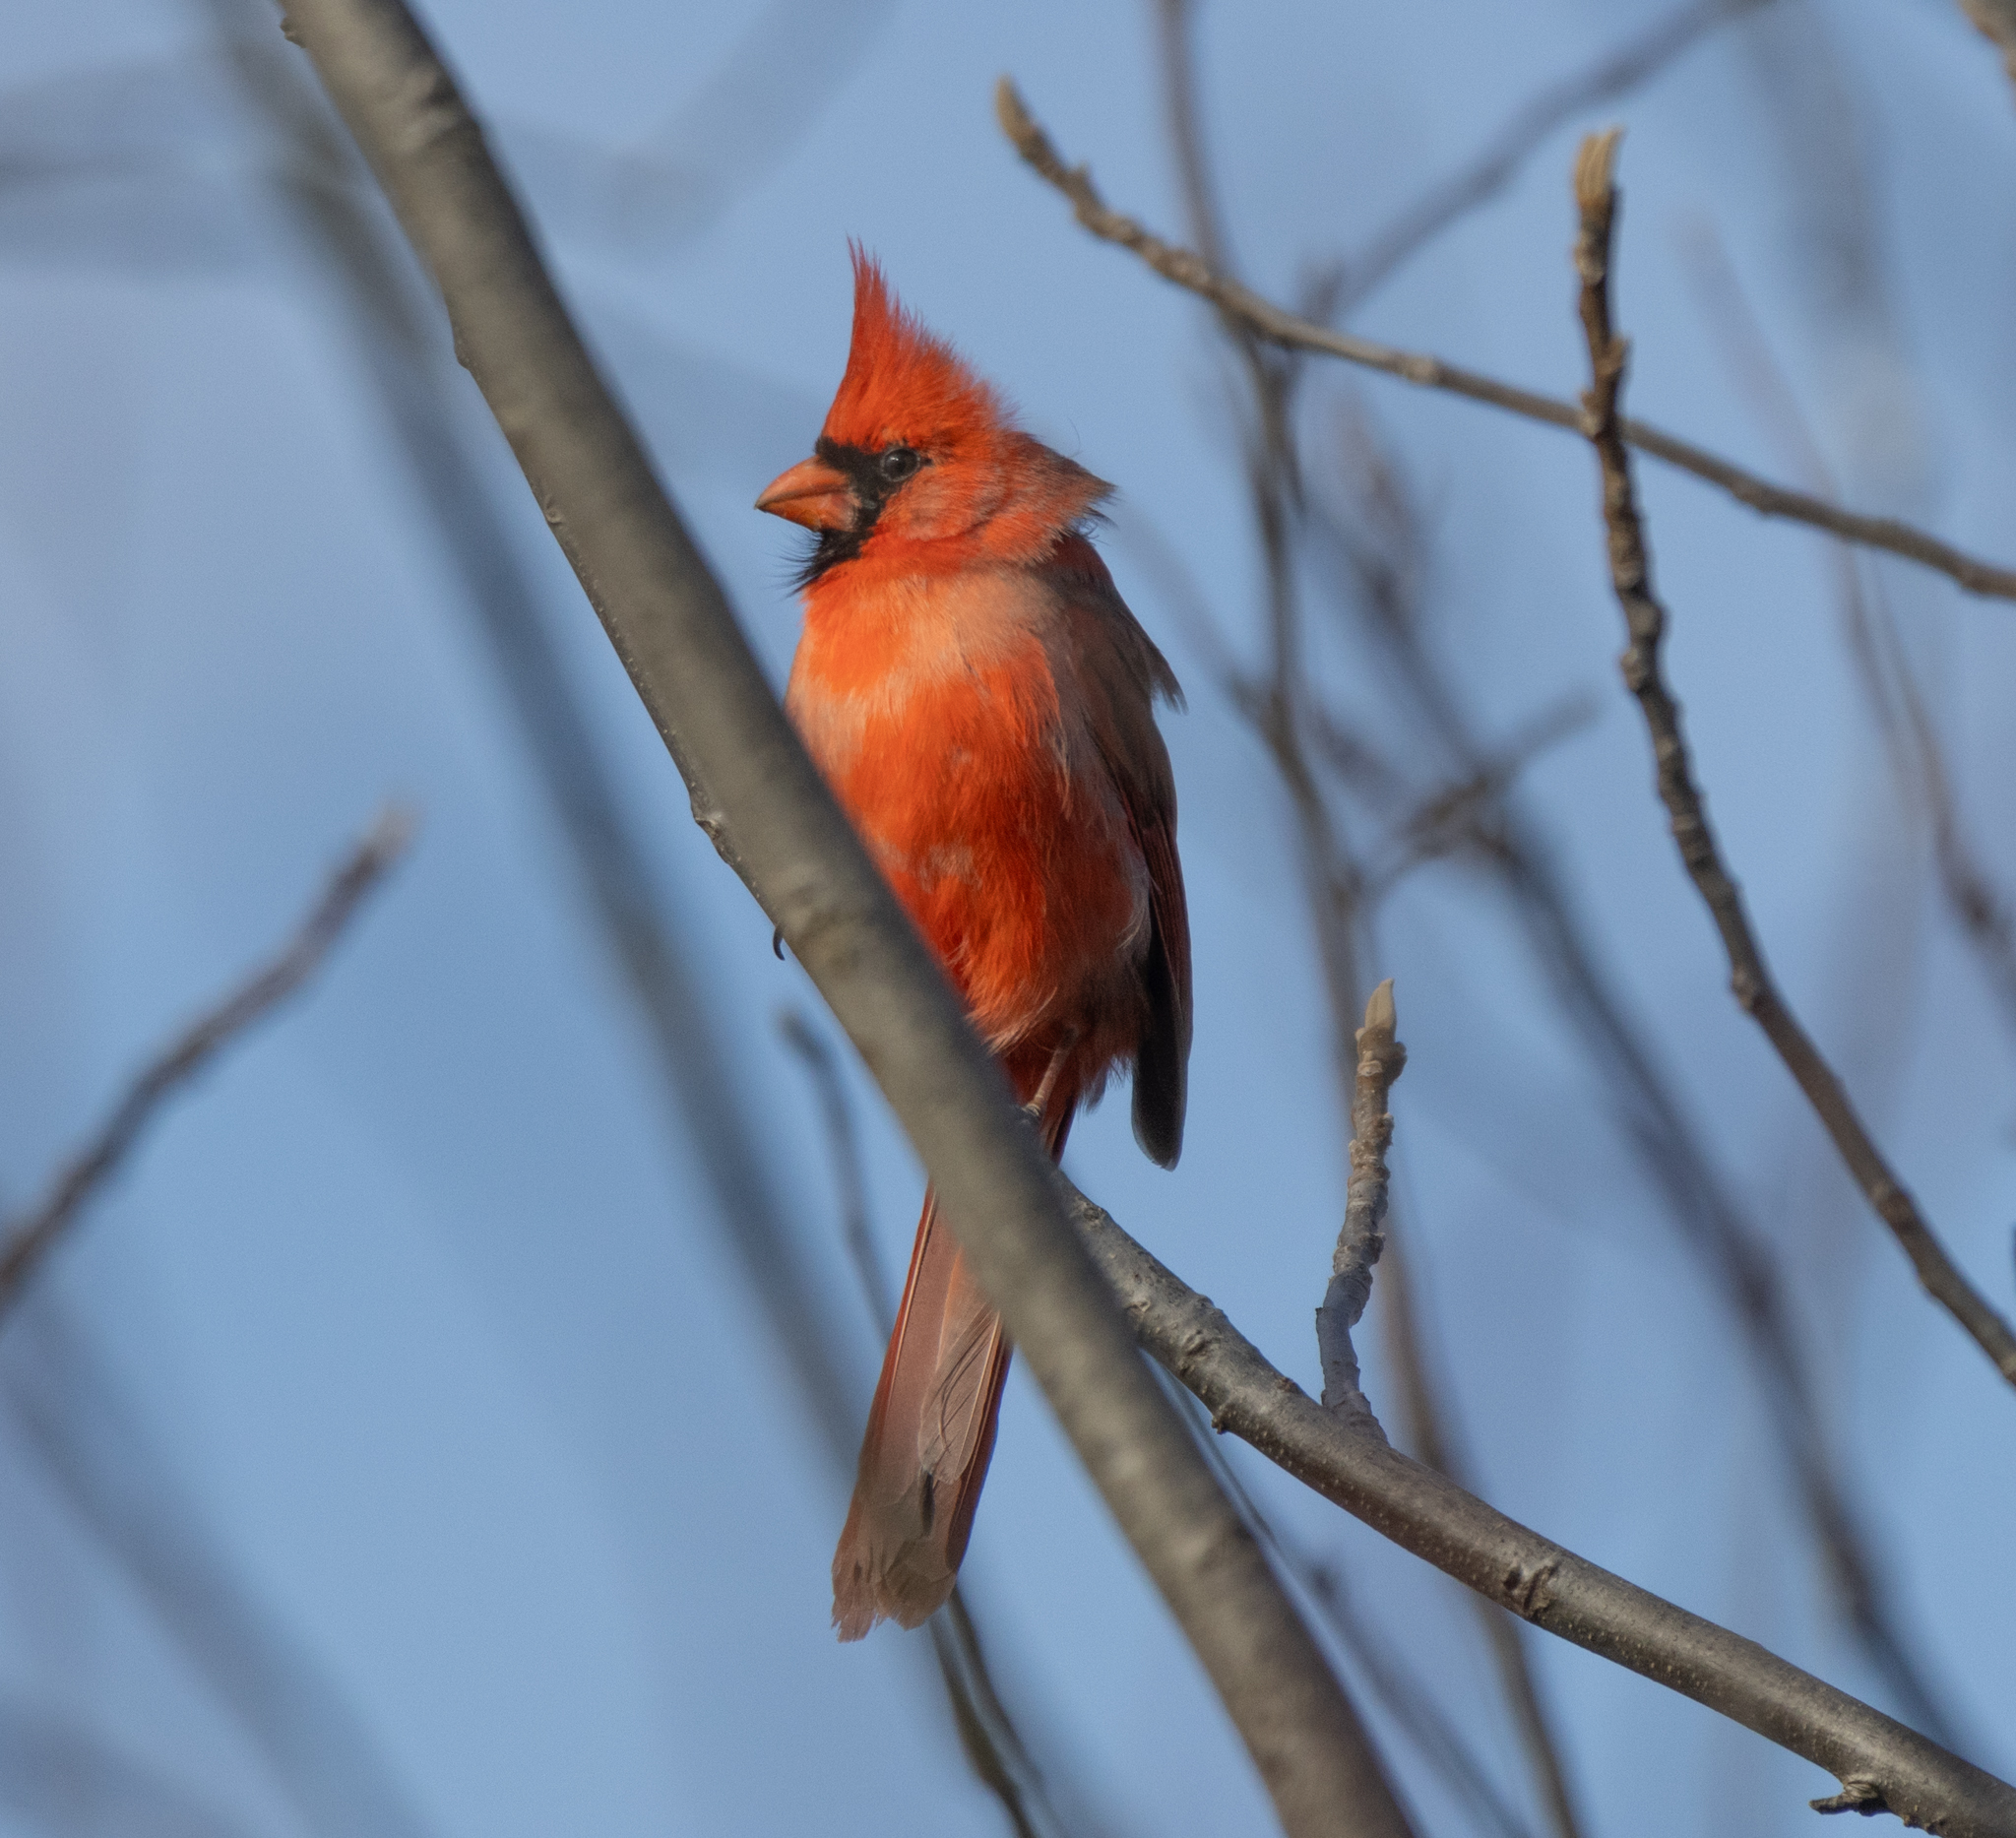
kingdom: Animalia
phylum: Chordata
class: Aves
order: Passeriformes
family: Cardinalidae
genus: Cardinalis
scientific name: Cardinalis cardinalis
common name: Northern cardinal
